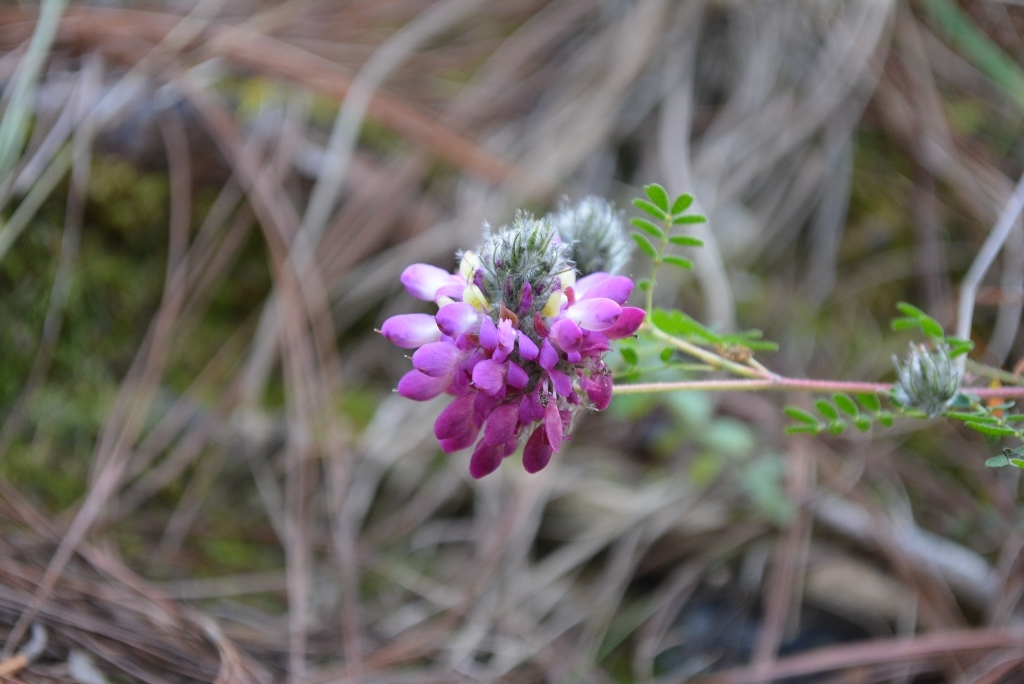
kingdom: Plantae
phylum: Tracheophyta
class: Magnoliopsida
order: Fabales
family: Fabaceae
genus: Dalea
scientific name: Dalea tomentosa
